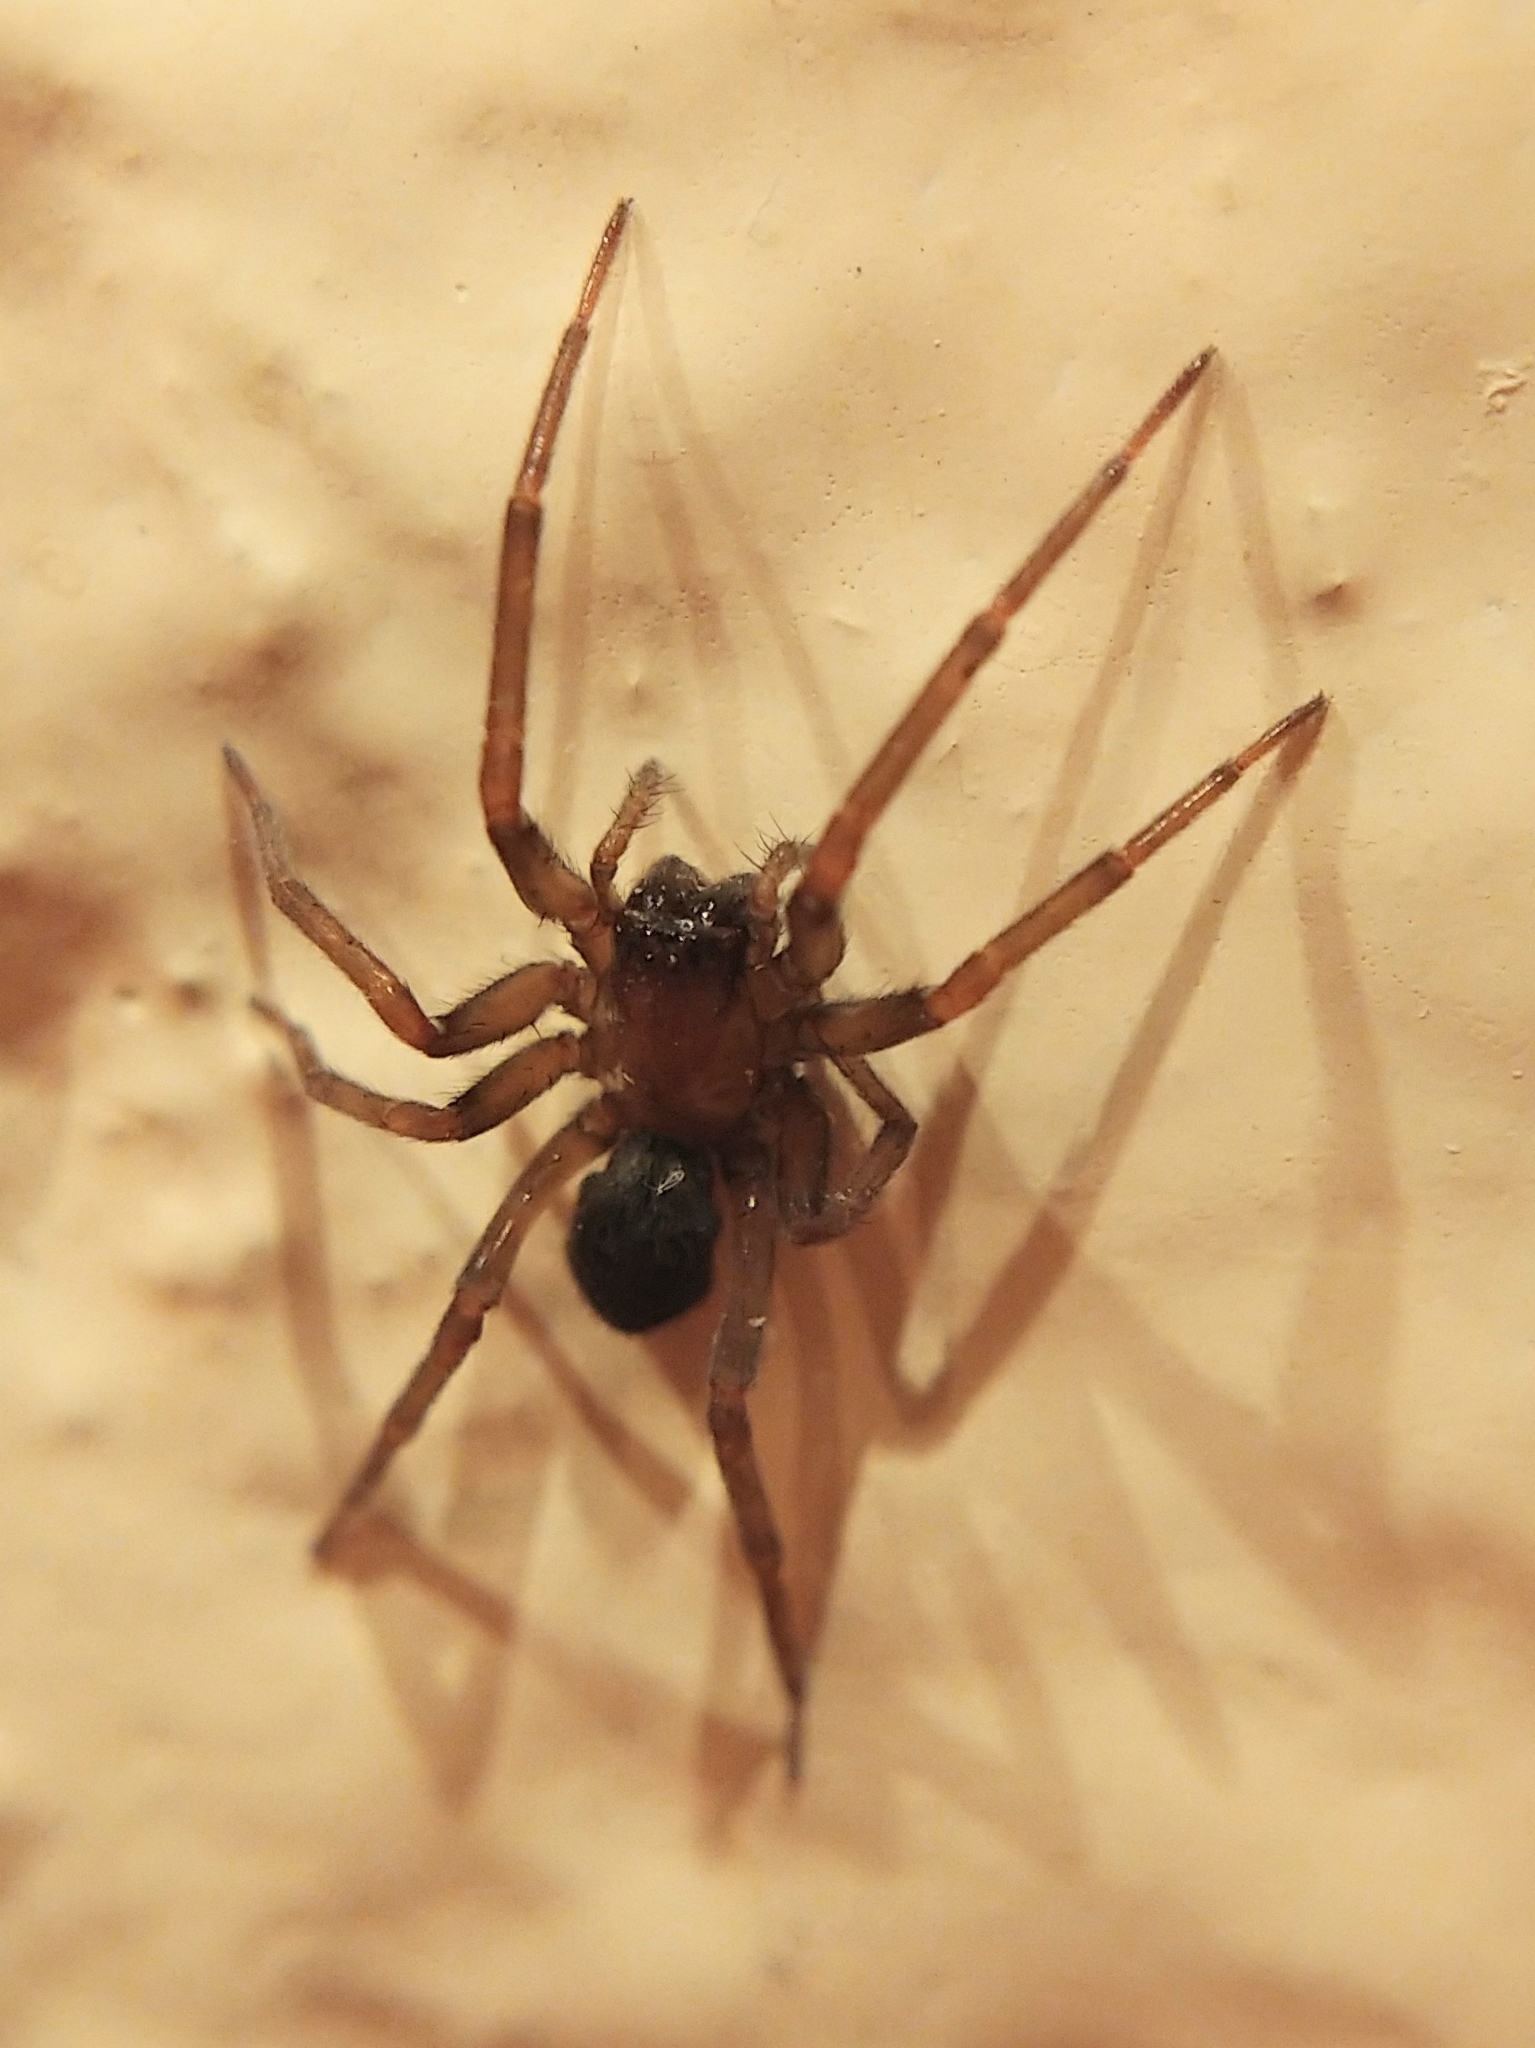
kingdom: Animalia
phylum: Arthropoda
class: Arachnida
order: Araneae
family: Desidae
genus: Metaltella
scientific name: Metaltella simoni
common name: Cribellate spider
